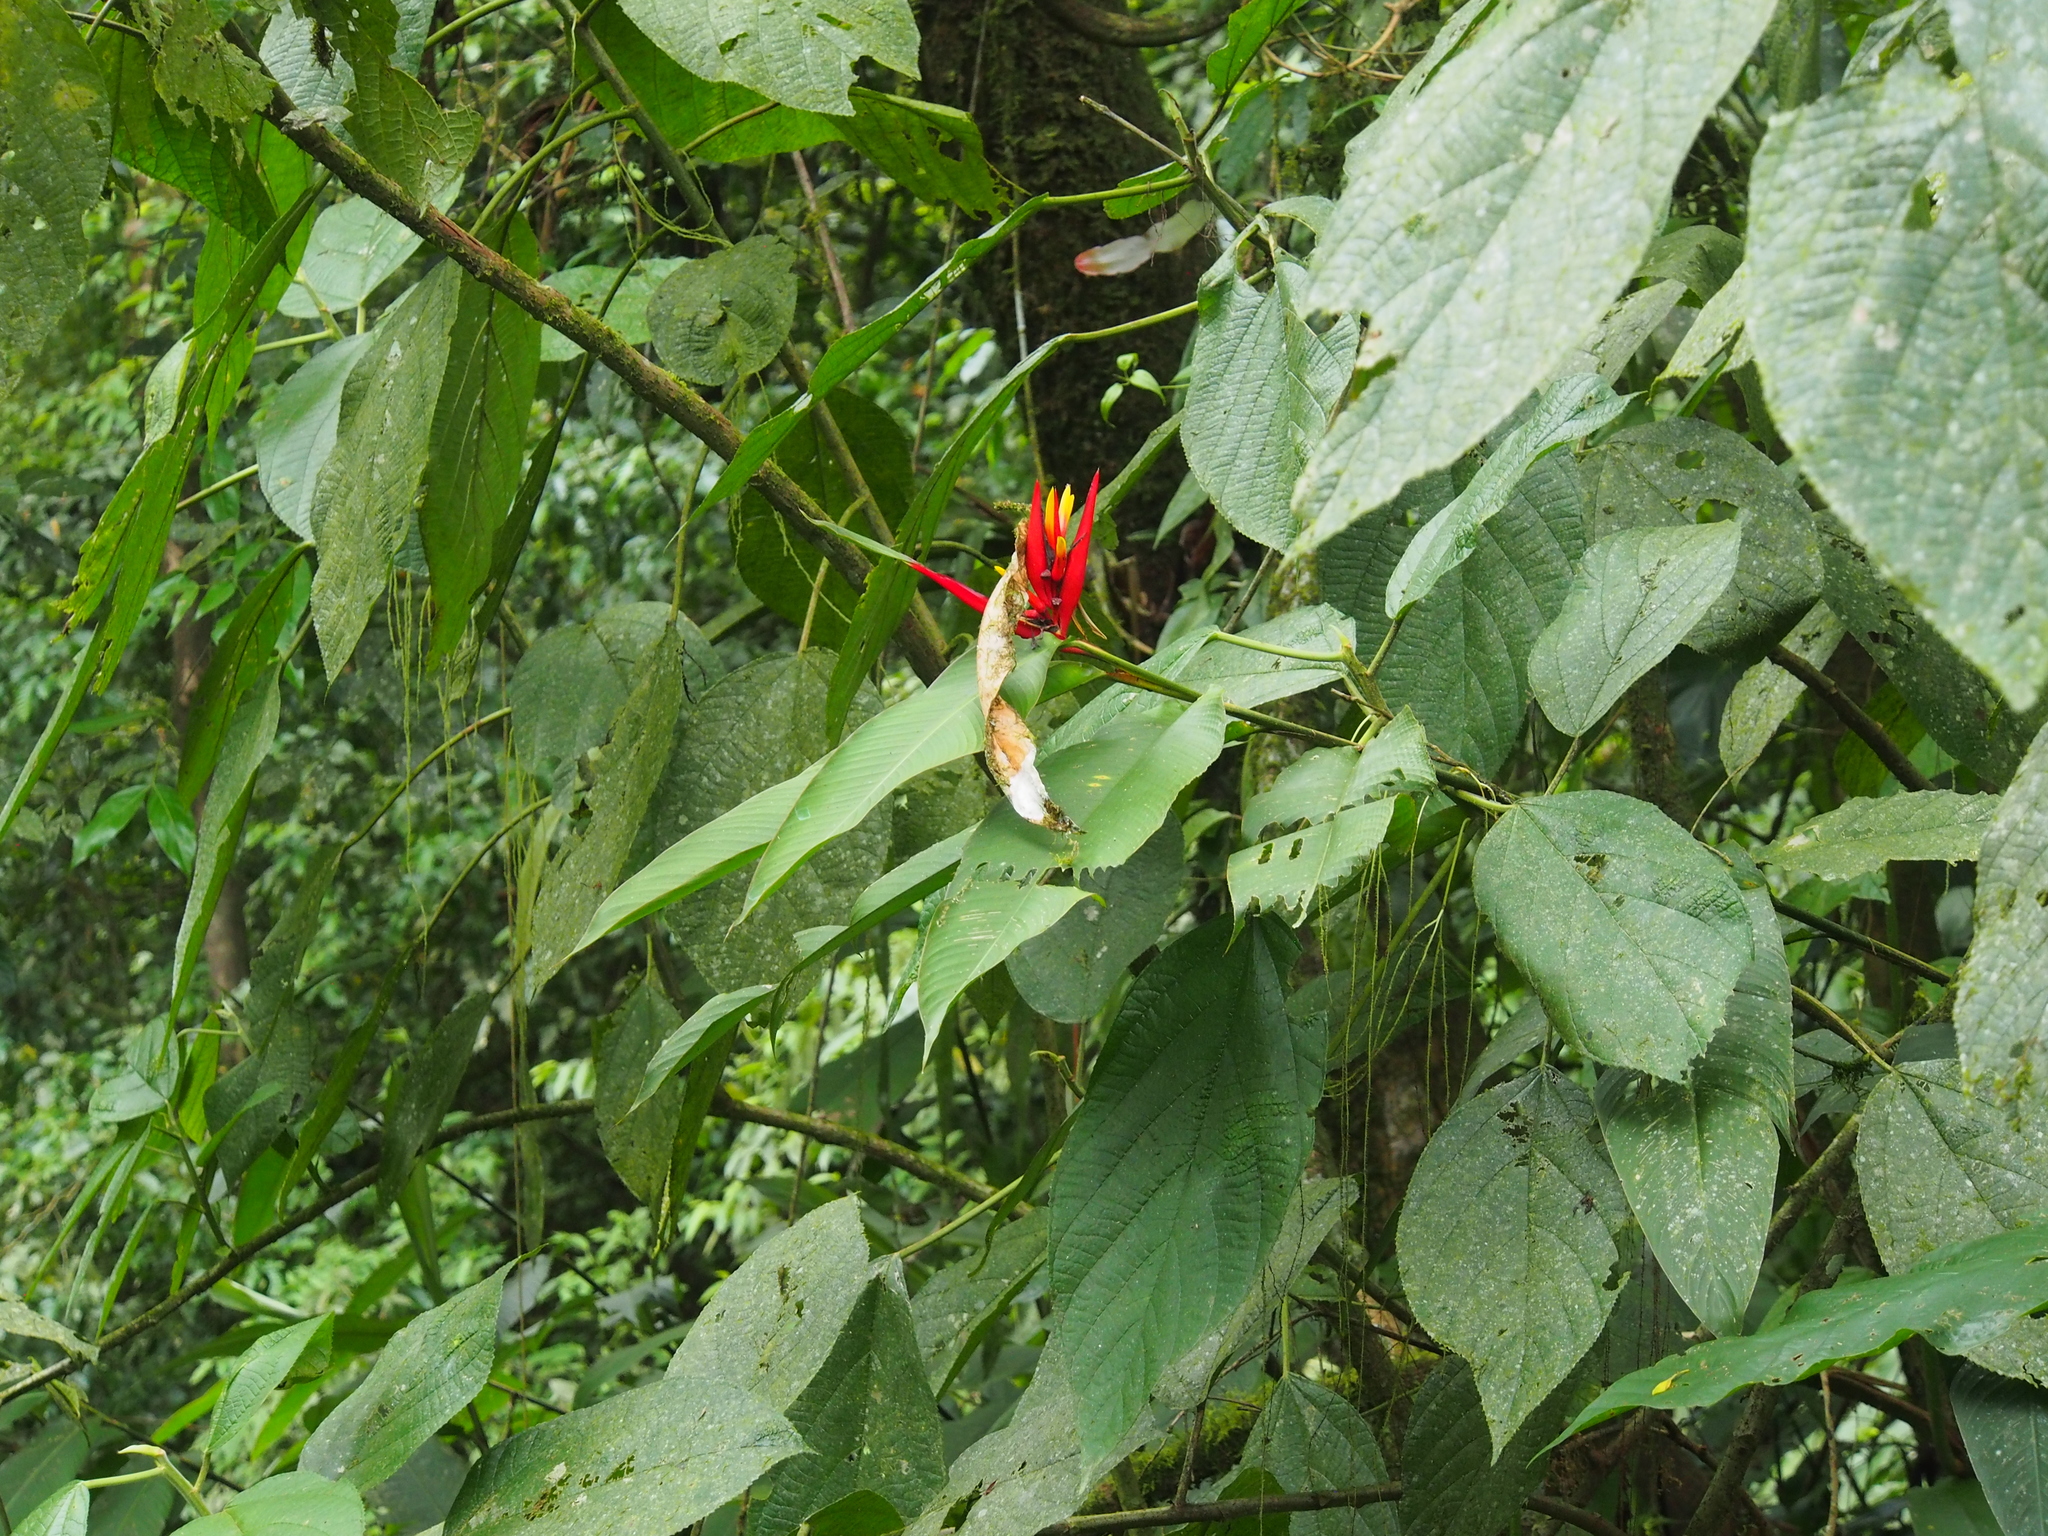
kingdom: Plantae
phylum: Tracheophyta
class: Liliopsida
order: Zingiberales
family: Heliconiaceae
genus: Heliconia
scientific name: Heliconia mathiasiae
